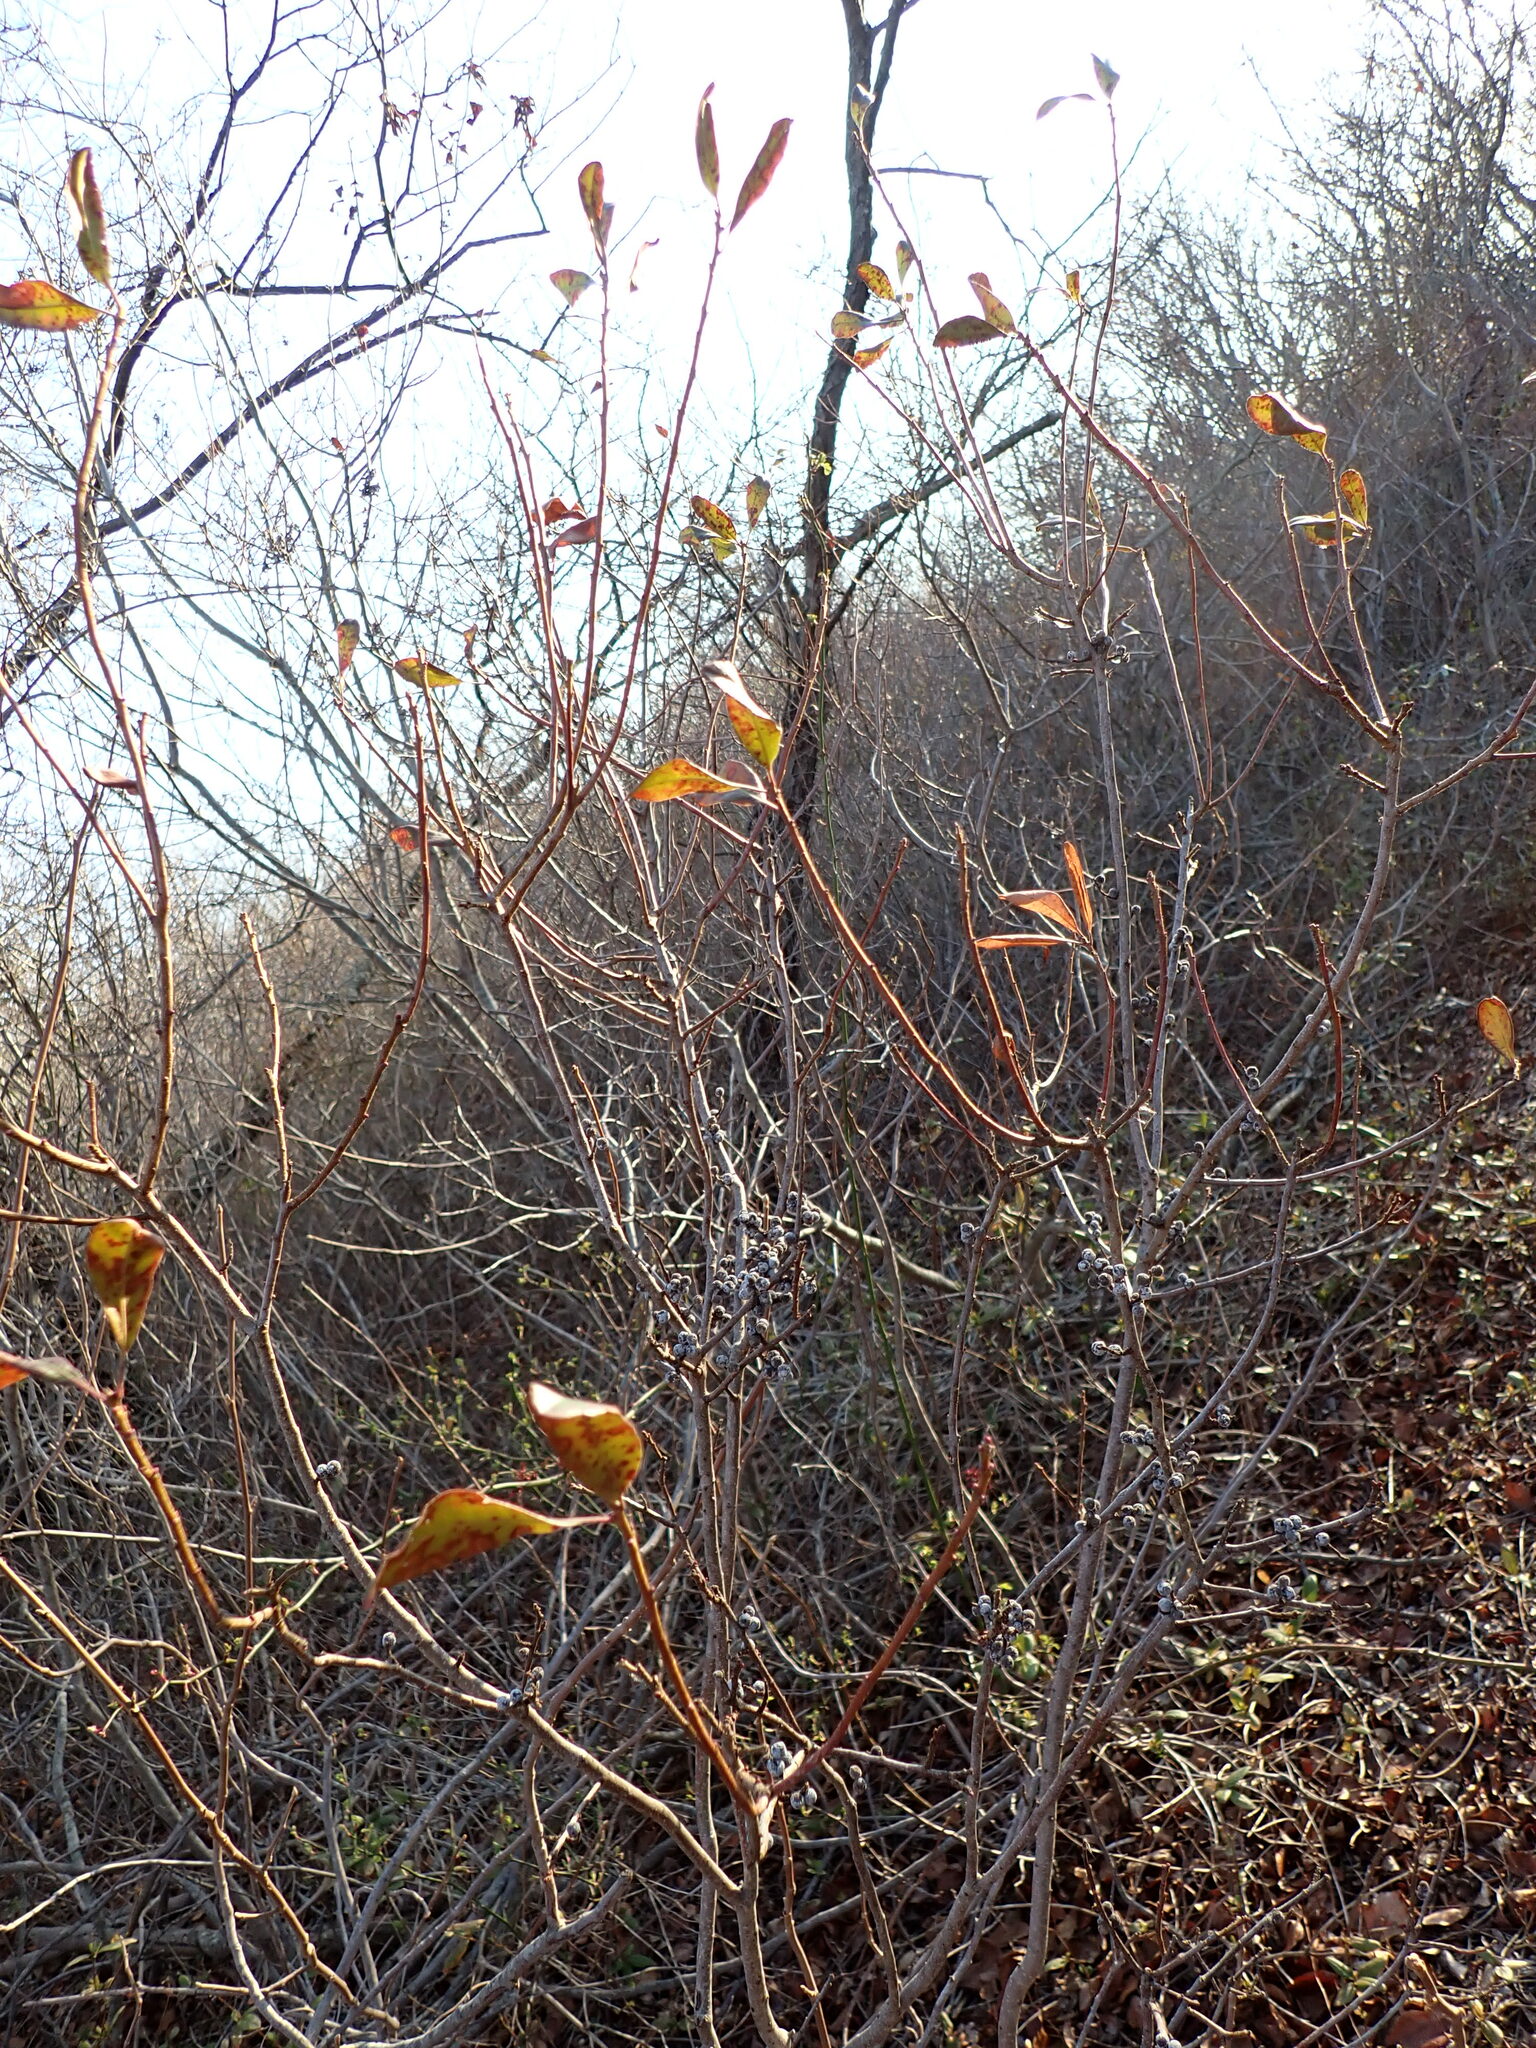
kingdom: Plantae
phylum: Tracheophyta
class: Magnoliopsida
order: Fagales
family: Myricaceae
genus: Morella
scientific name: Morella pensylvanica
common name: Northern bayberry
